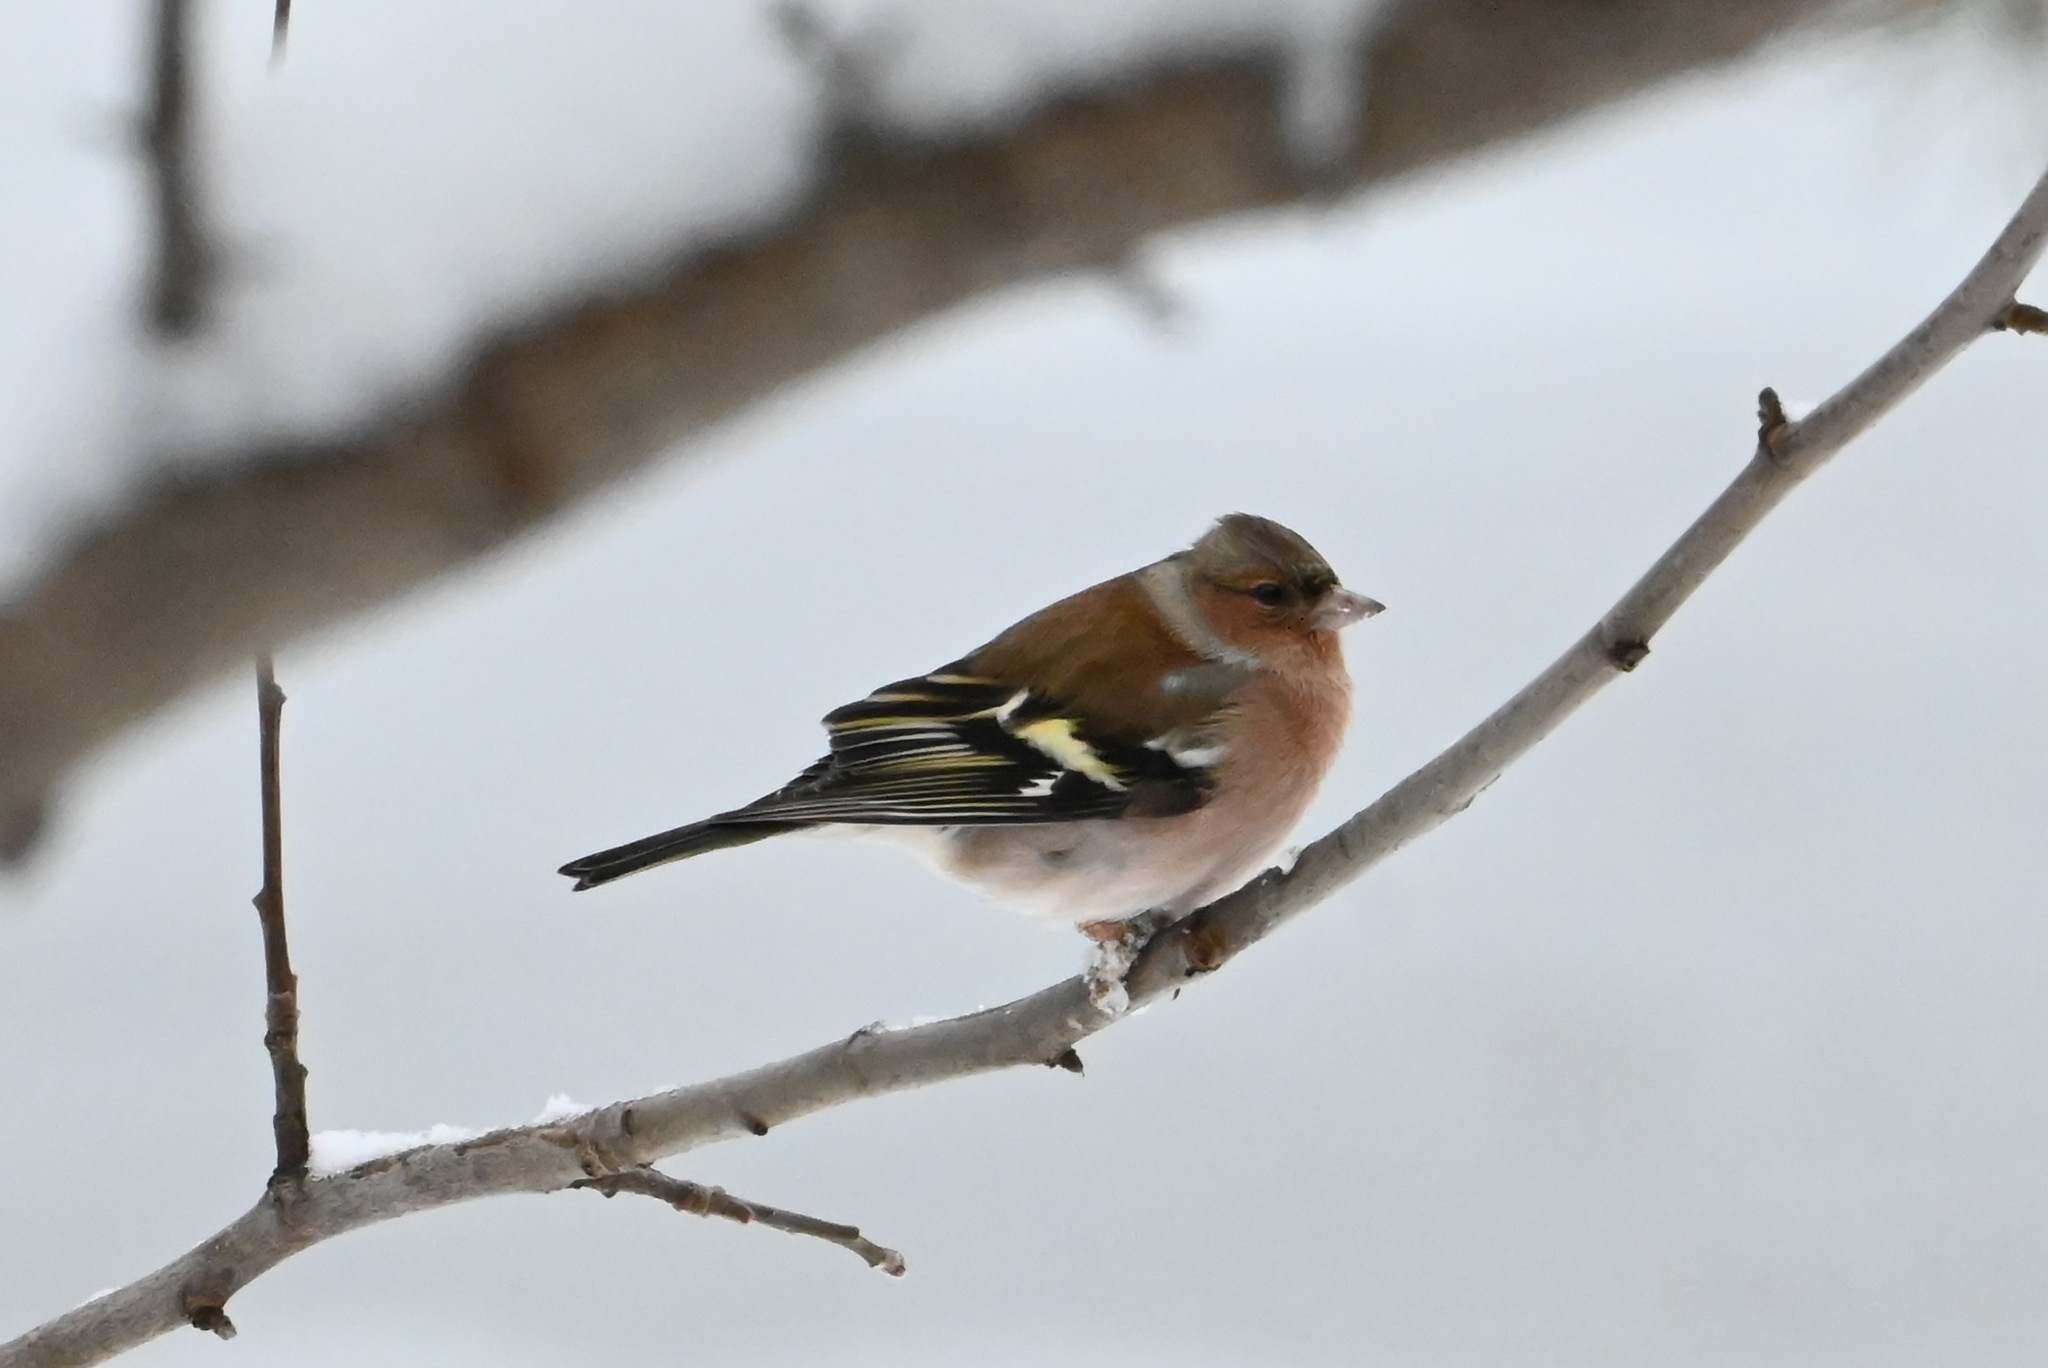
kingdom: Animalia
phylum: Chordata
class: Aves
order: Passeriformes
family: Fringillidae
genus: Fringilla
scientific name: Fringilla coelebs
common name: Common chaffinch
